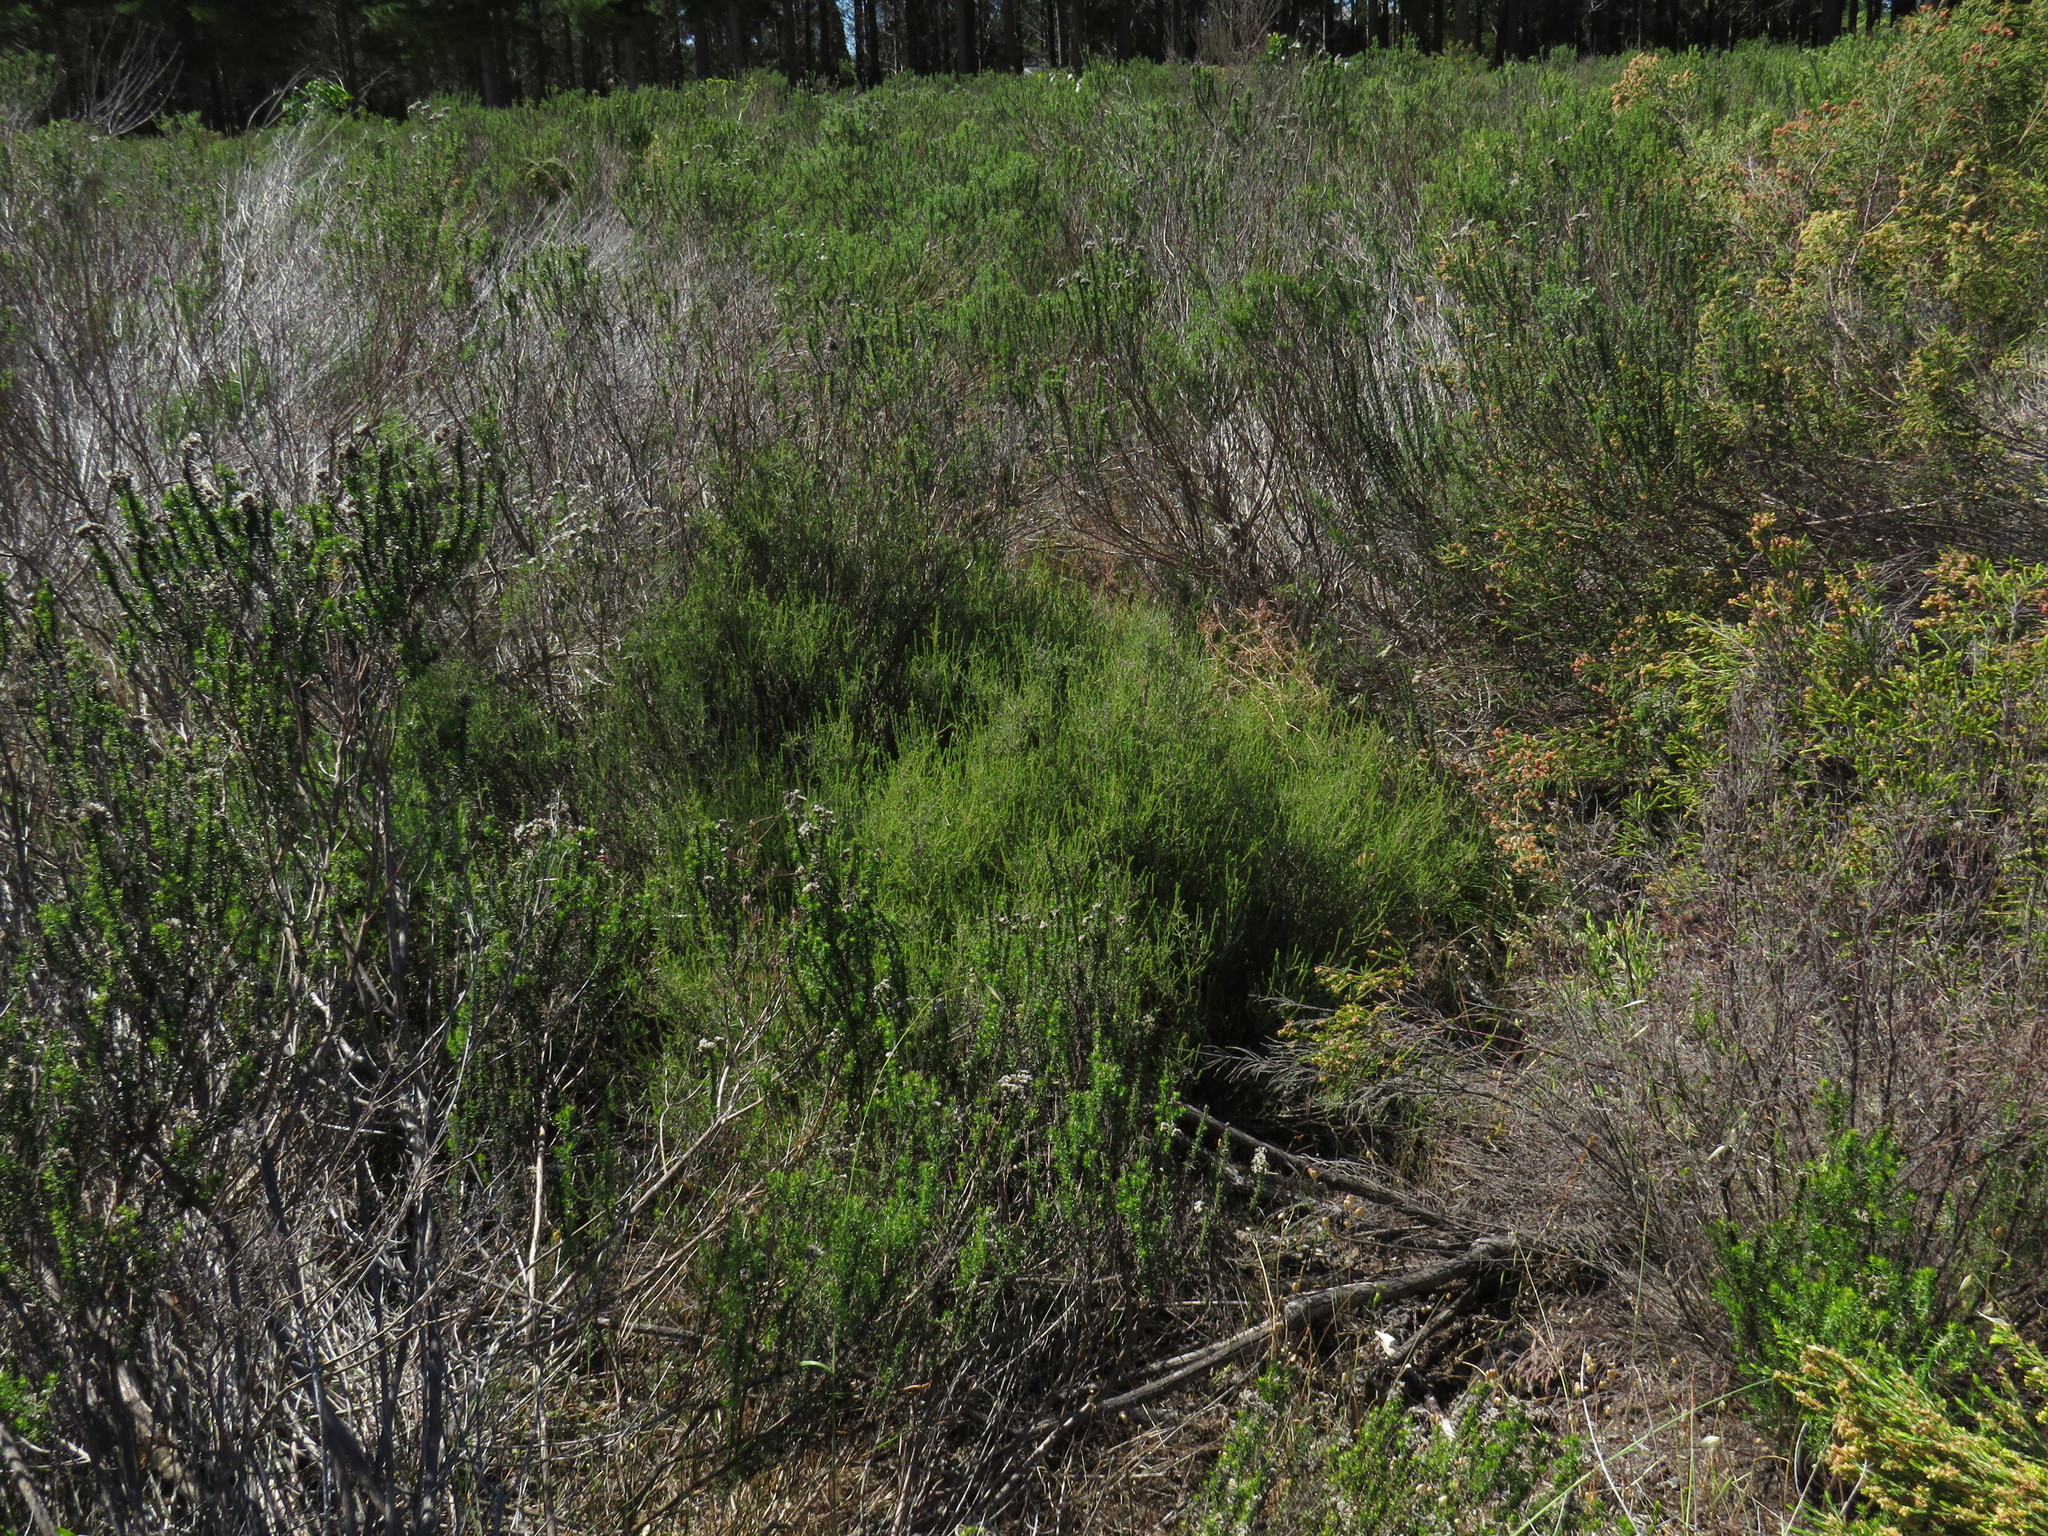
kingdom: Plantae
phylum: Tracheophyta
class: Magnoliopsida
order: Asterales
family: Asteraceae
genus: Myrovernix
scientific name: Myrovernix scaber
